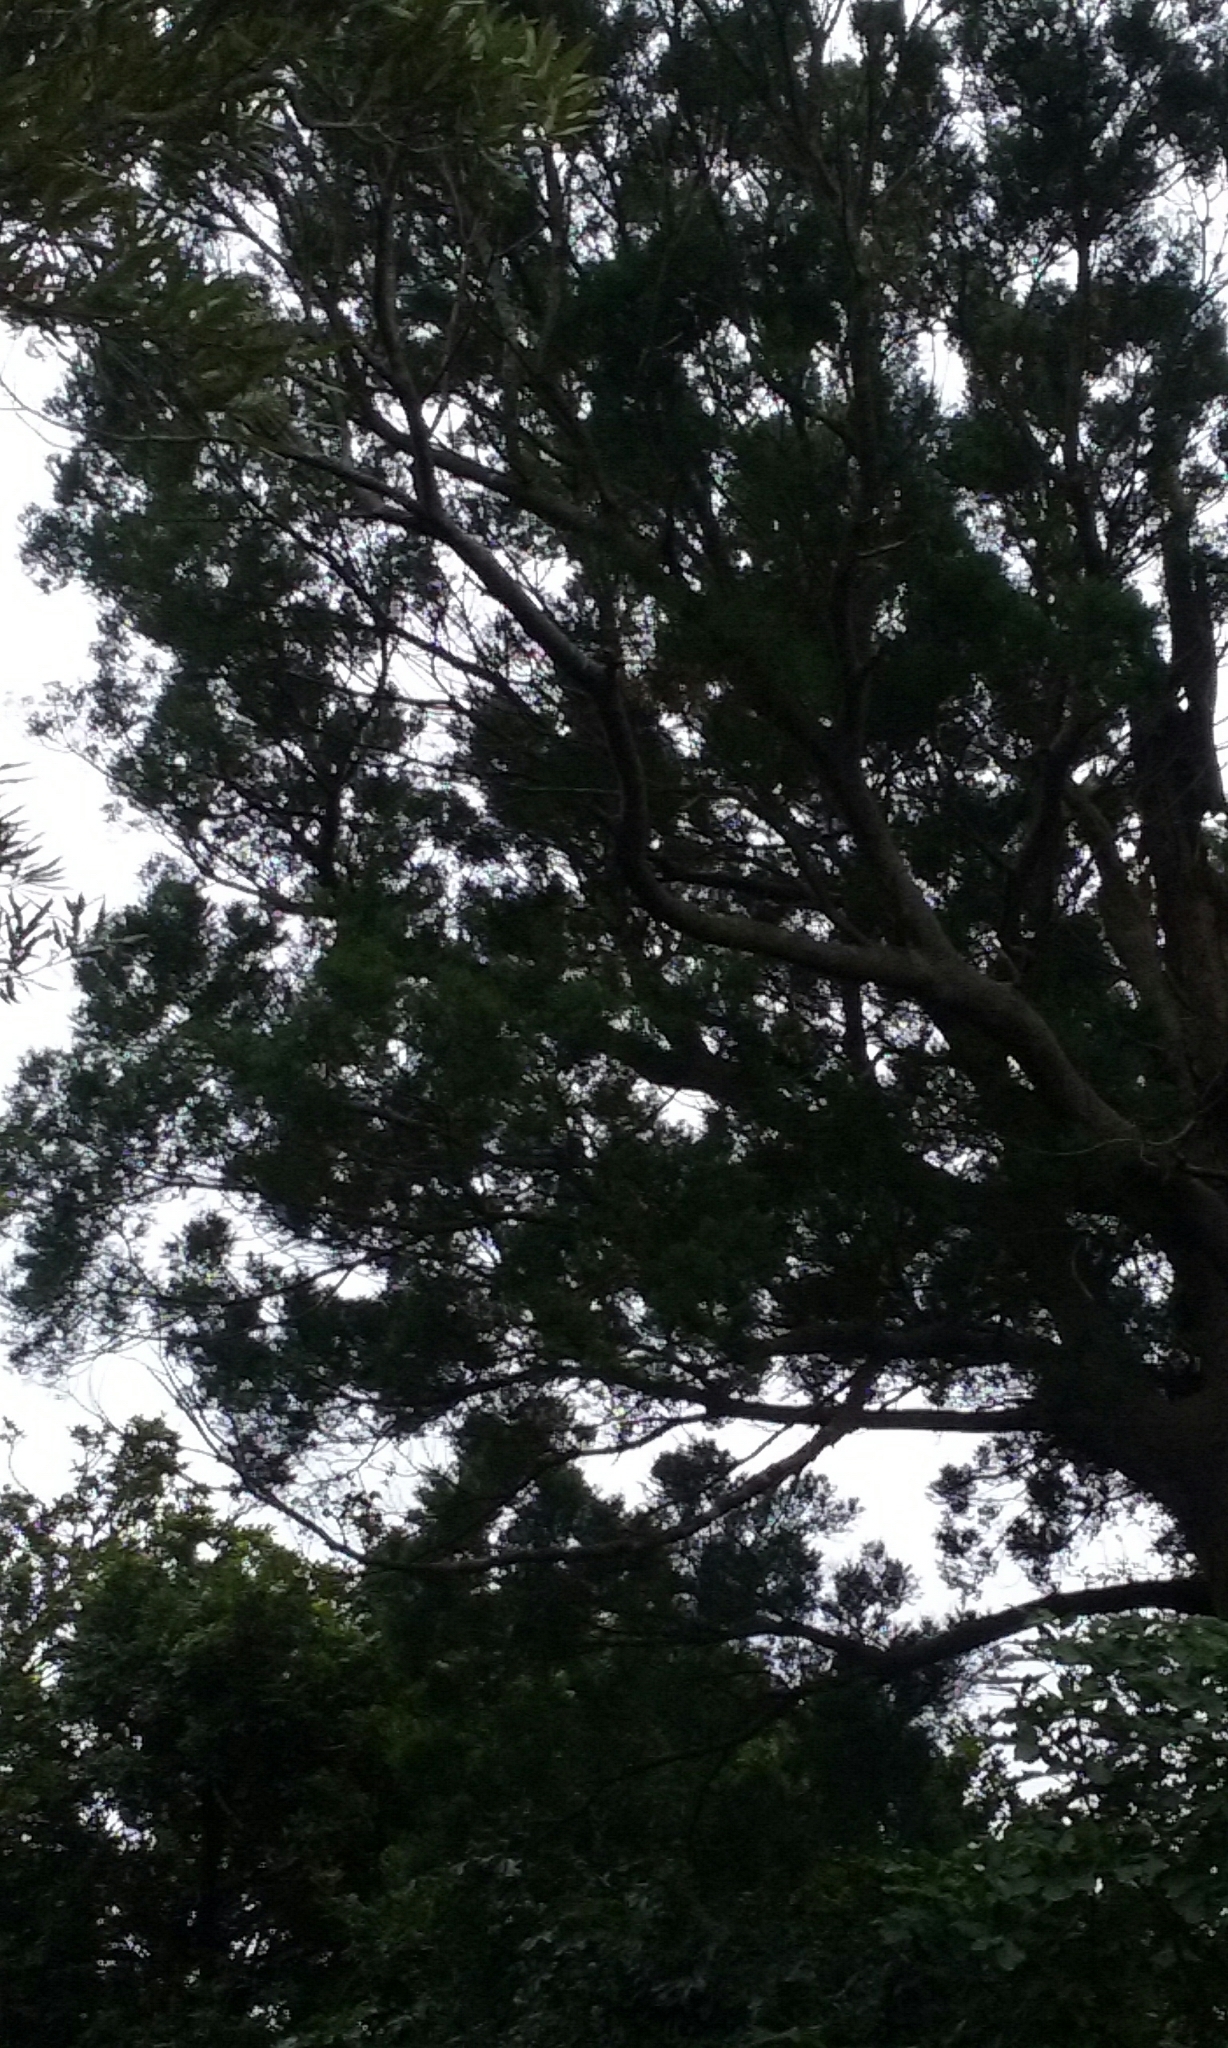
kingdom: Plantae
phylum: Tracheophyta
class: Pinopsida
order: Pinales
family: Podocarpaceae
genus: Prumnopitys
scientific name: Prumnopitys taxifolia
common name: Matai
